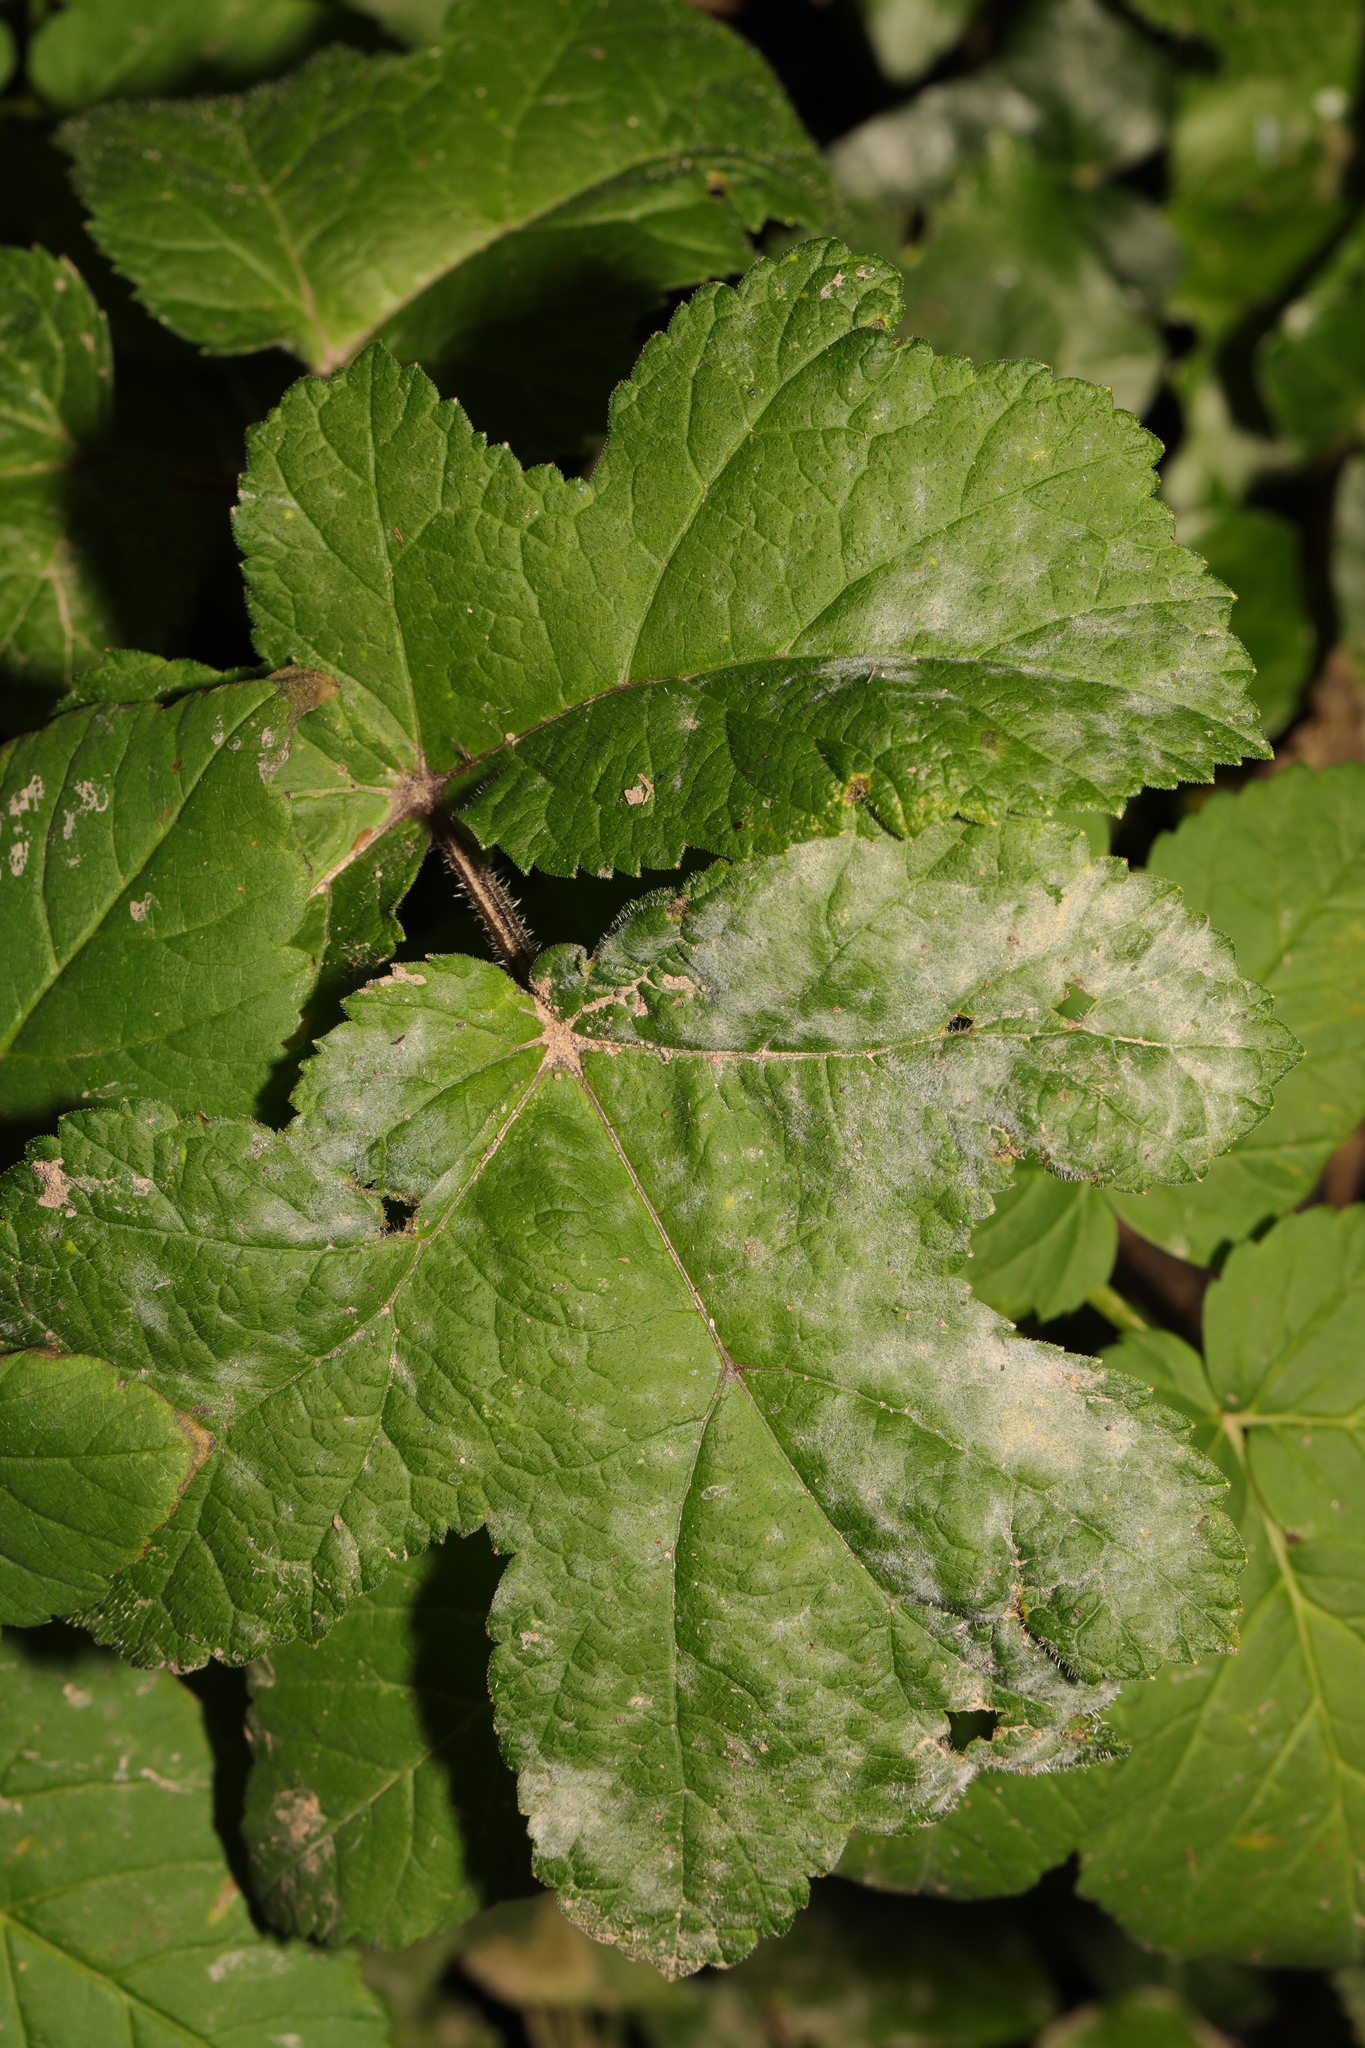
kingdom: Plantae
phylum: Tracheophyta
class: Magnoliopsida
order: Apiales
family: Apiaceae
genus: Heracleum
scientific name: Heracleum sphondylium
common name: Hogweed
